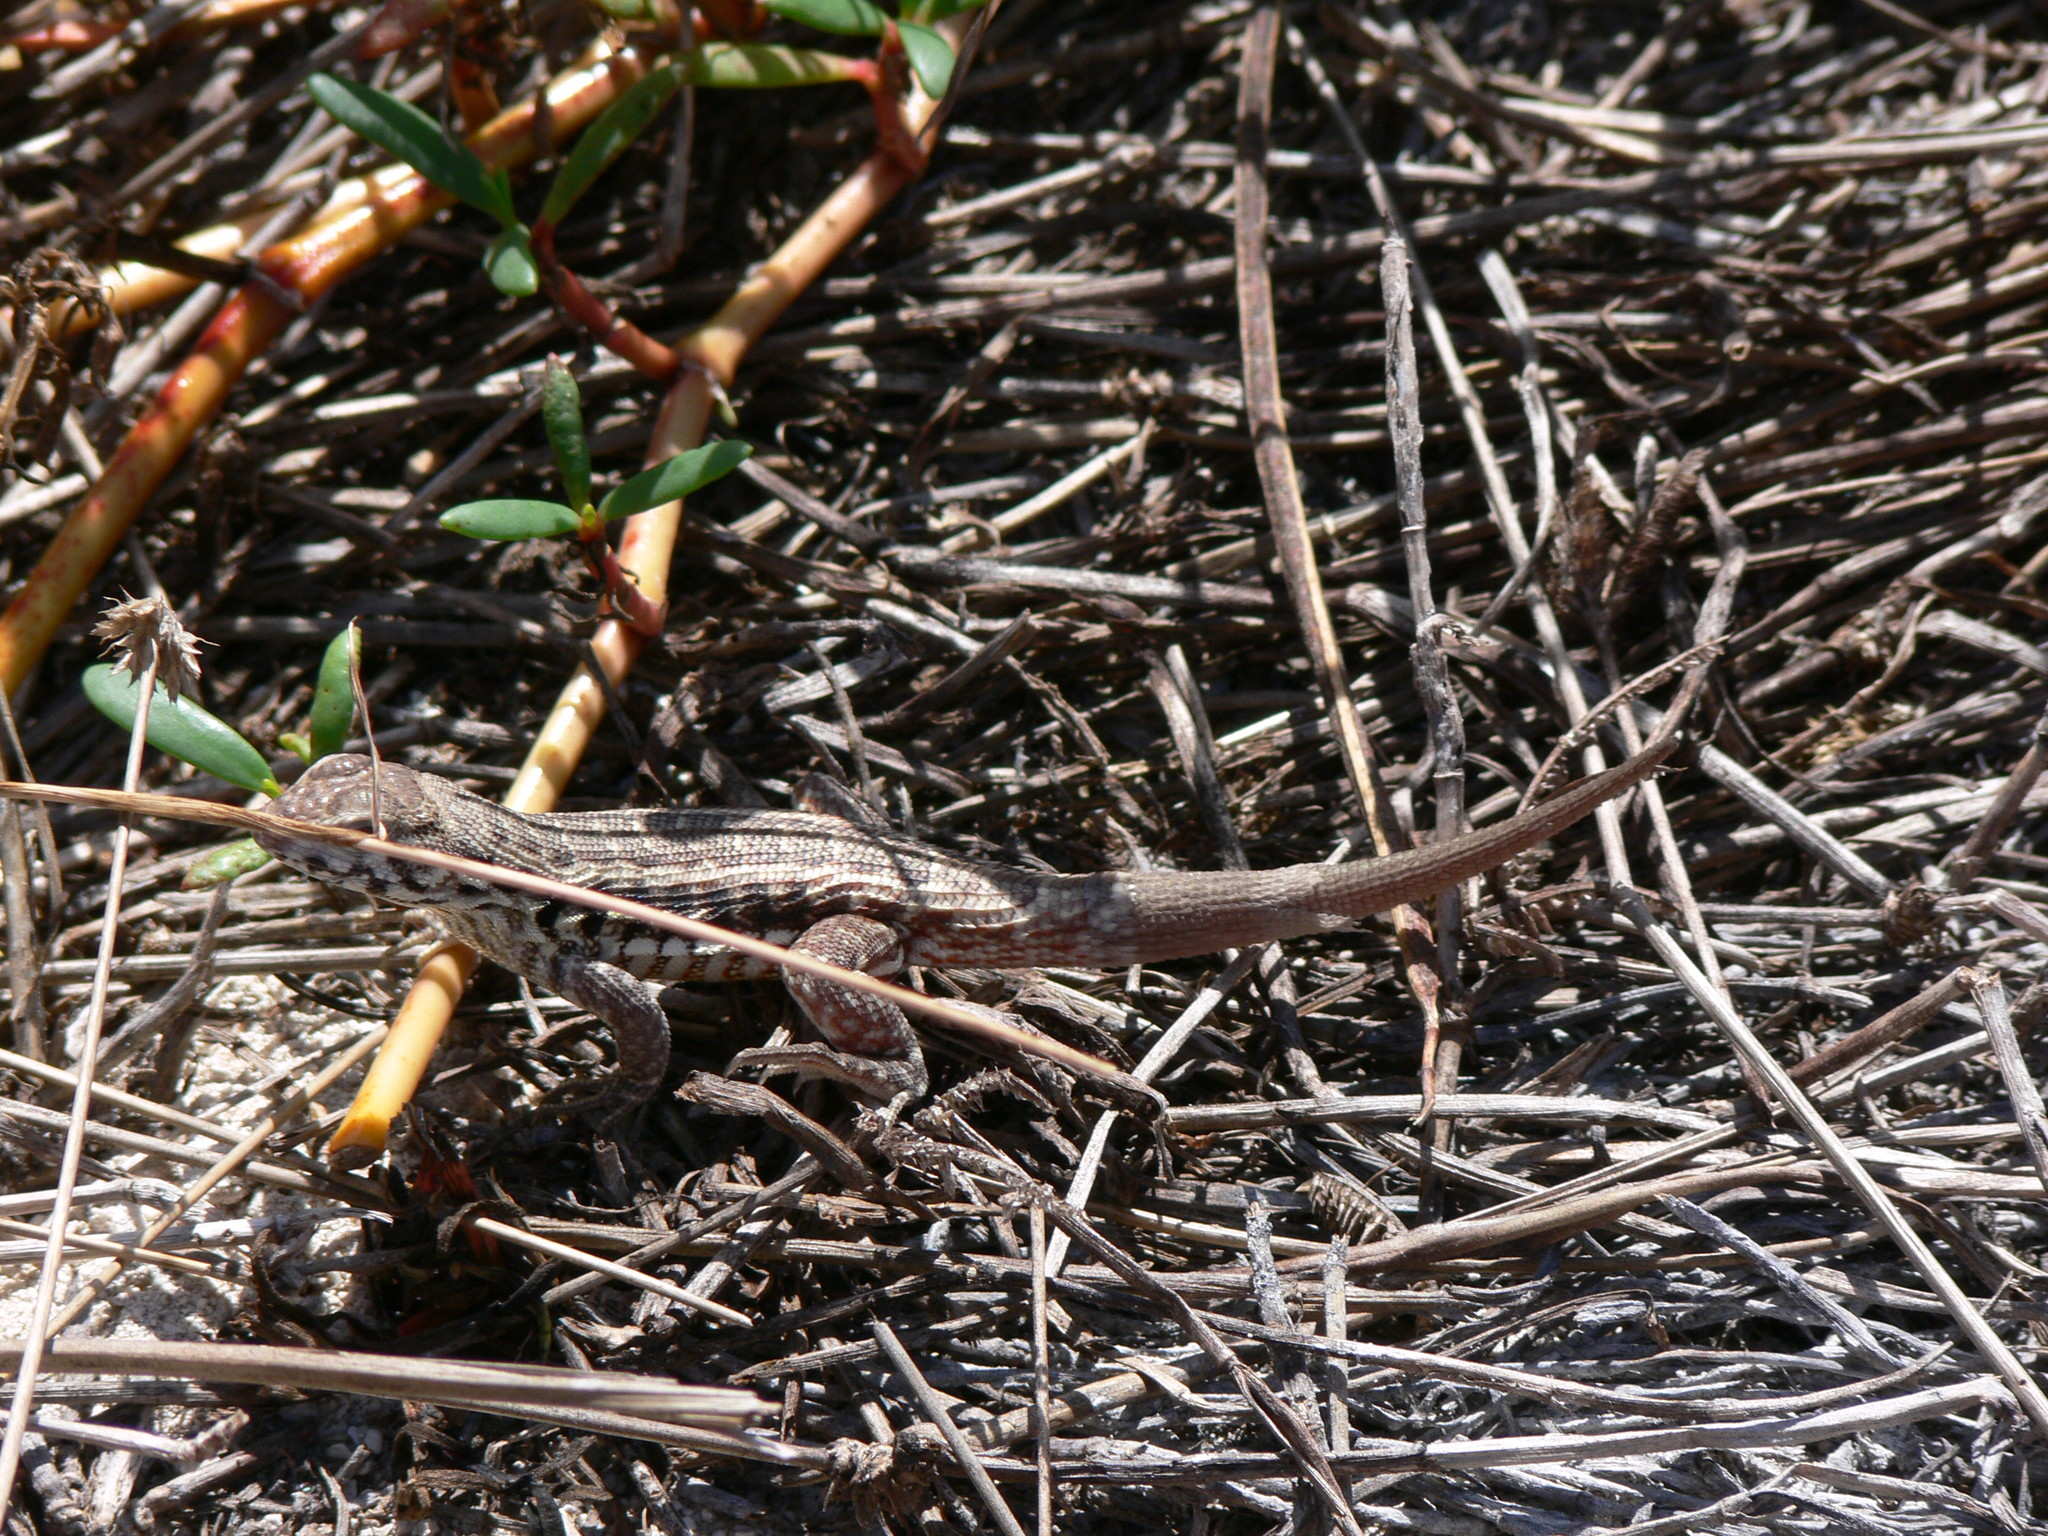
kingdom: Animalia
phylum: Chordata
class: Squamata
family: Leiocephalidae
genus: Leiocephalus
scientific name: Leiocephalus inaguae
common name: Inagua curlytail lizard
